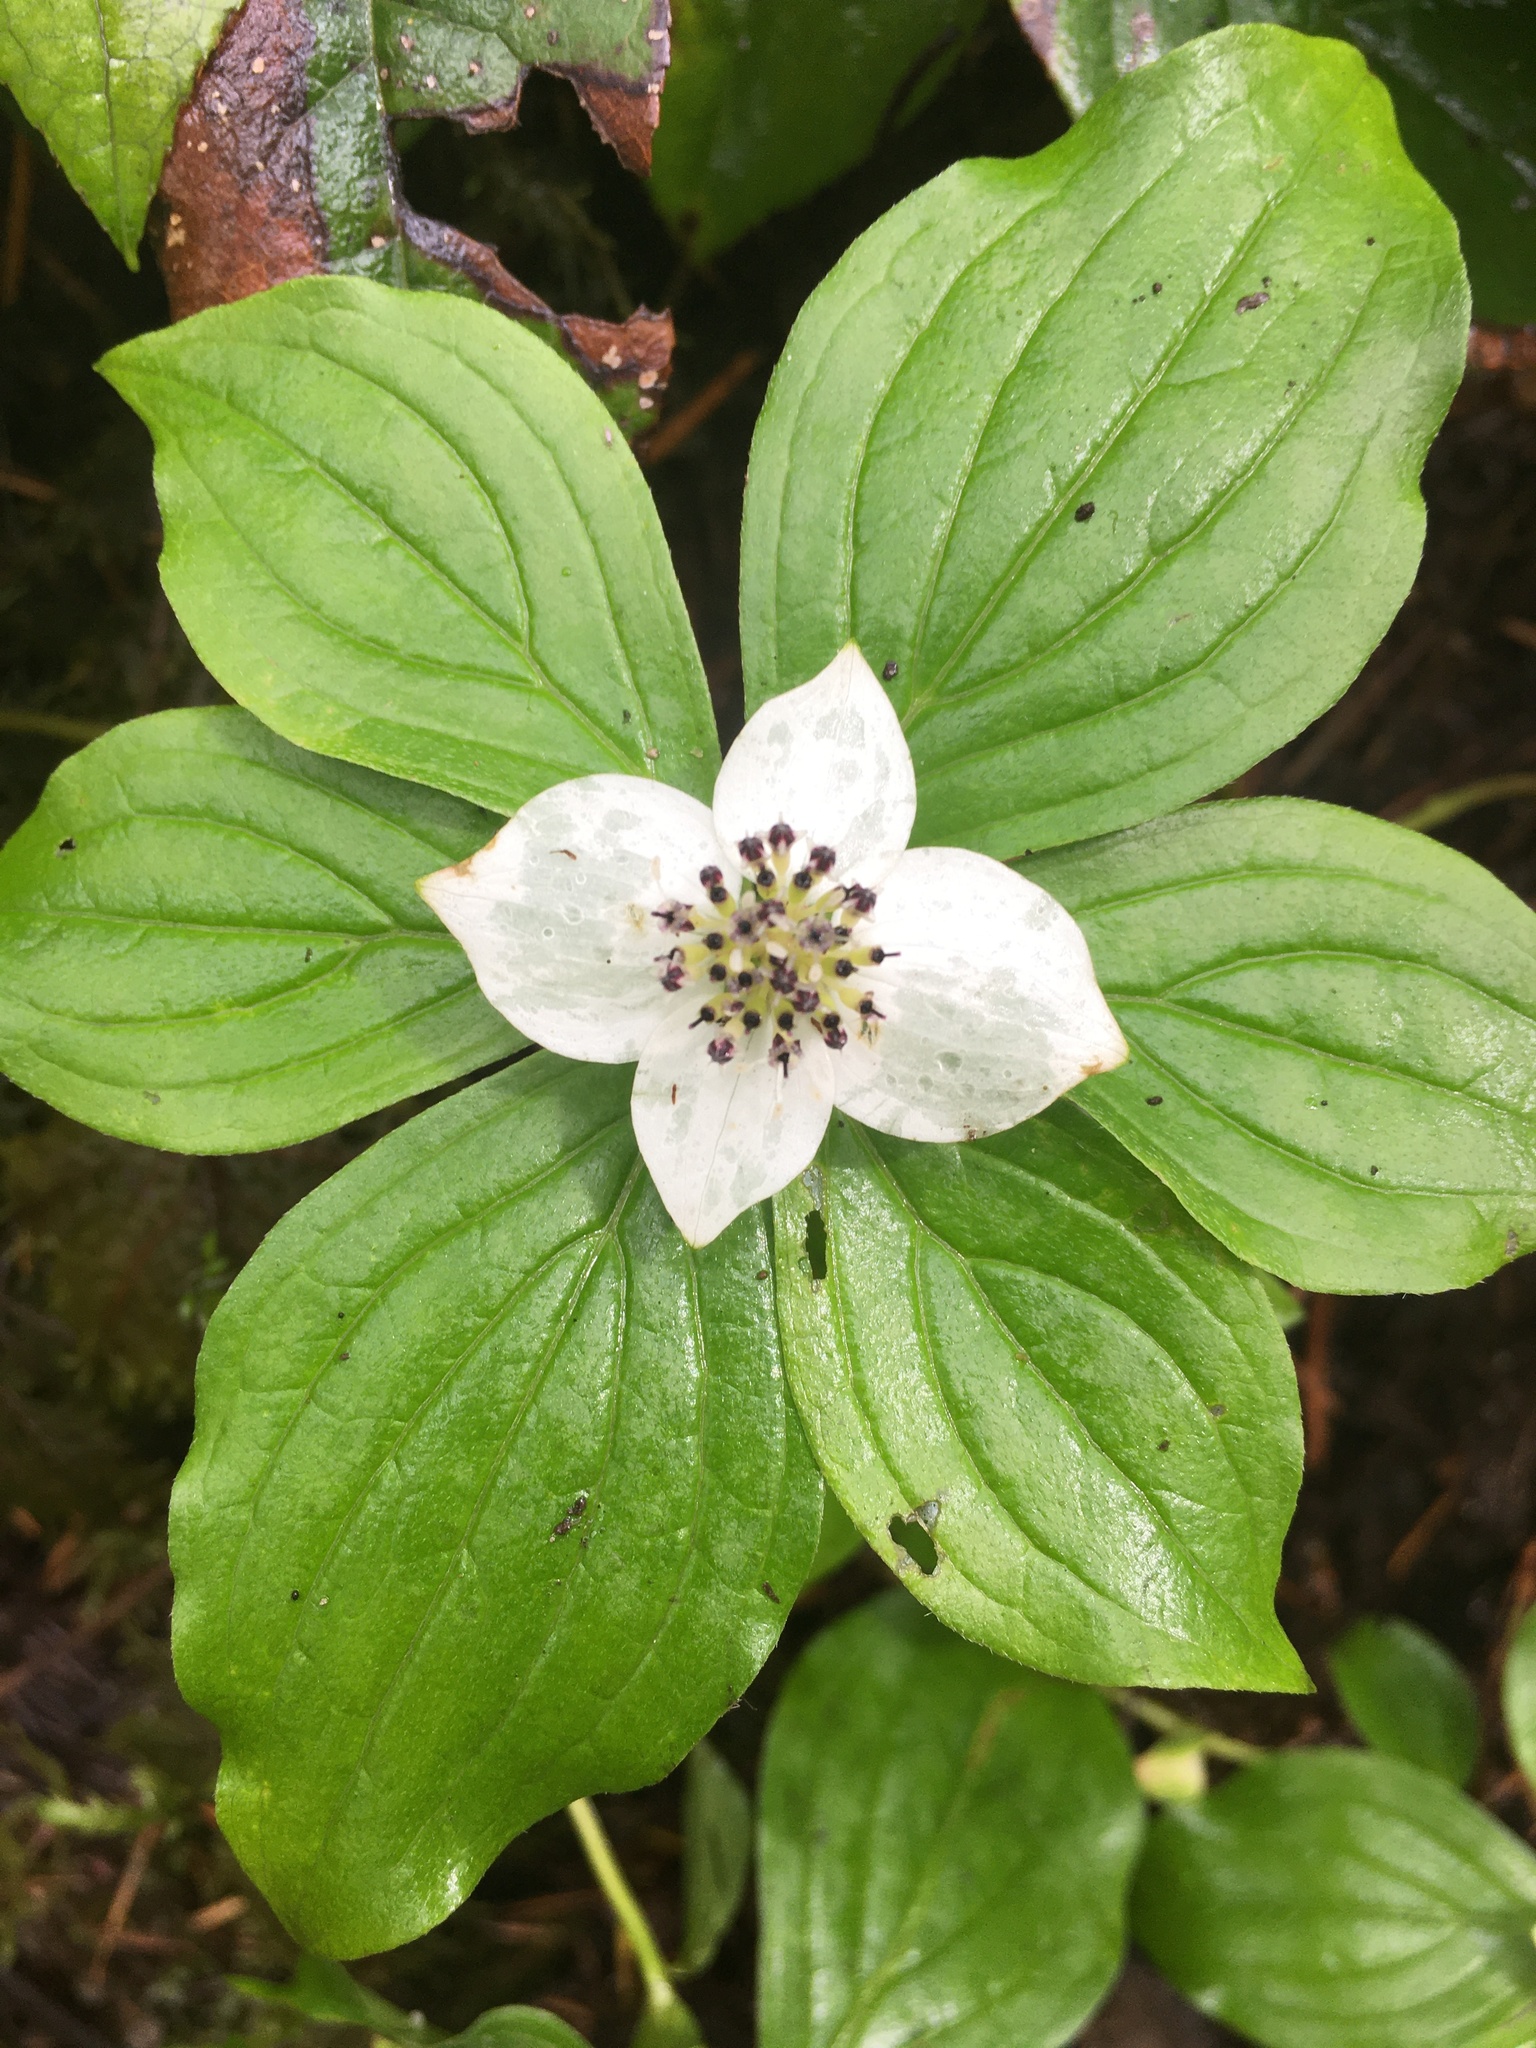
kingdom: Plantae
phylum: Tracheophyta
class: Magnoliopsida
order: Cornales
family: Cornaceae
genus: Cornus
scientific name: Cornus unalaschkensis
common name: Alaska bunchberry
